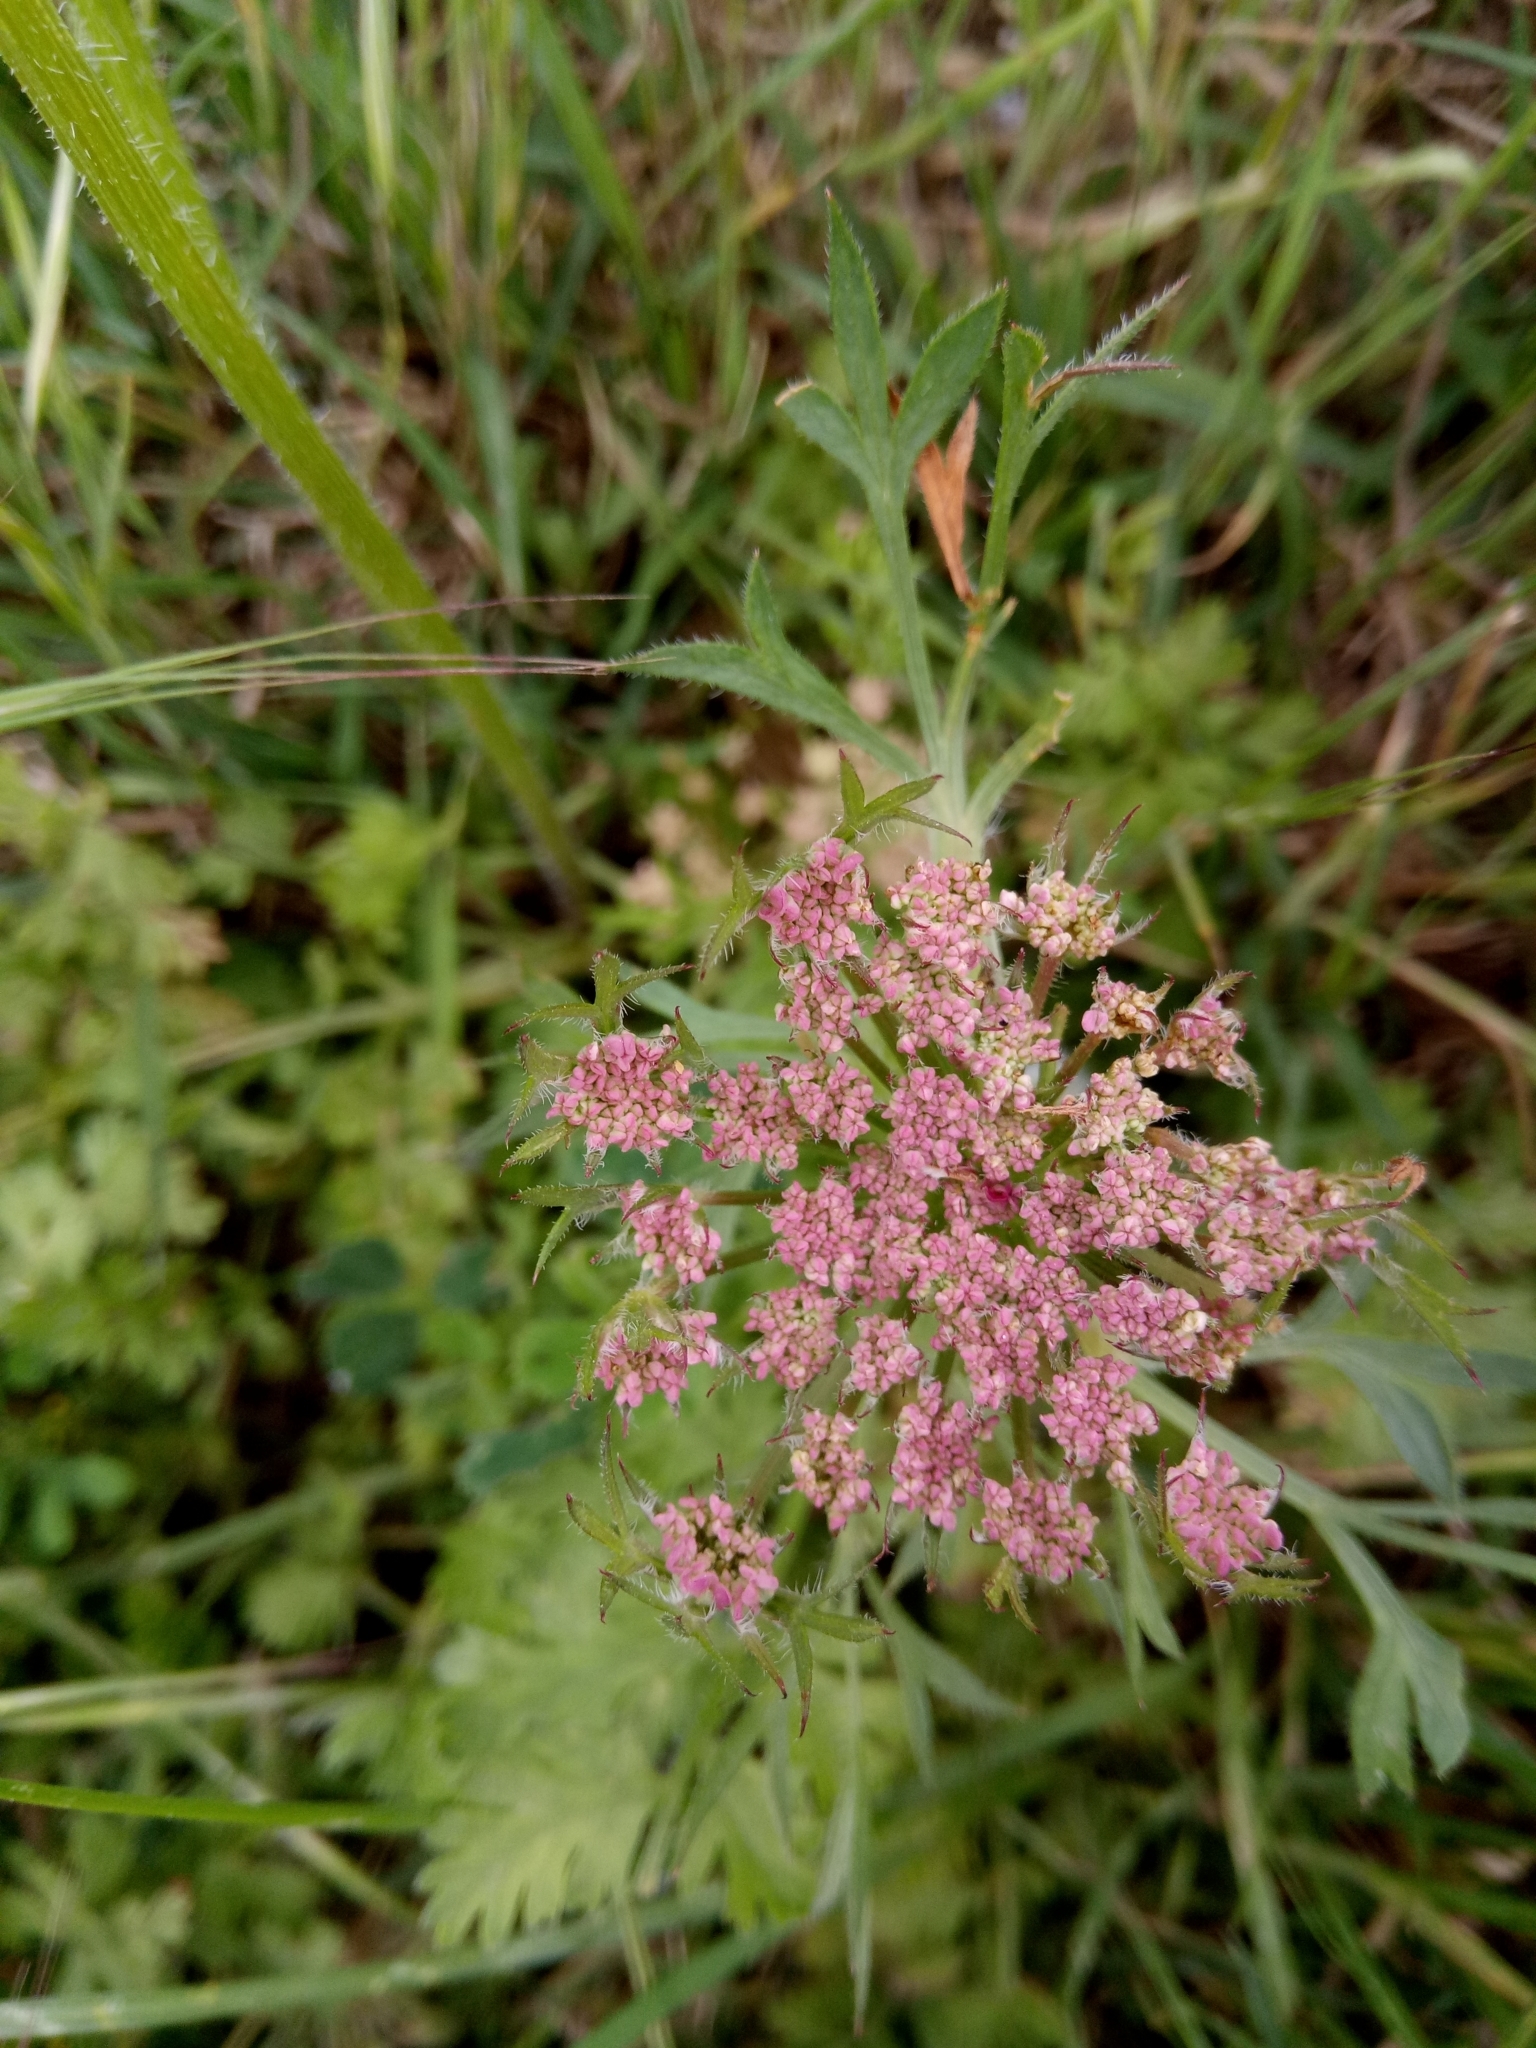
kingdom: Plantae
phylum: Tracheophyta
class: Magnoliopsida
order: Apiales
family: Apiaceae
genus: Daucus
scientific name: Daucus carota
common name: Wild carrot
